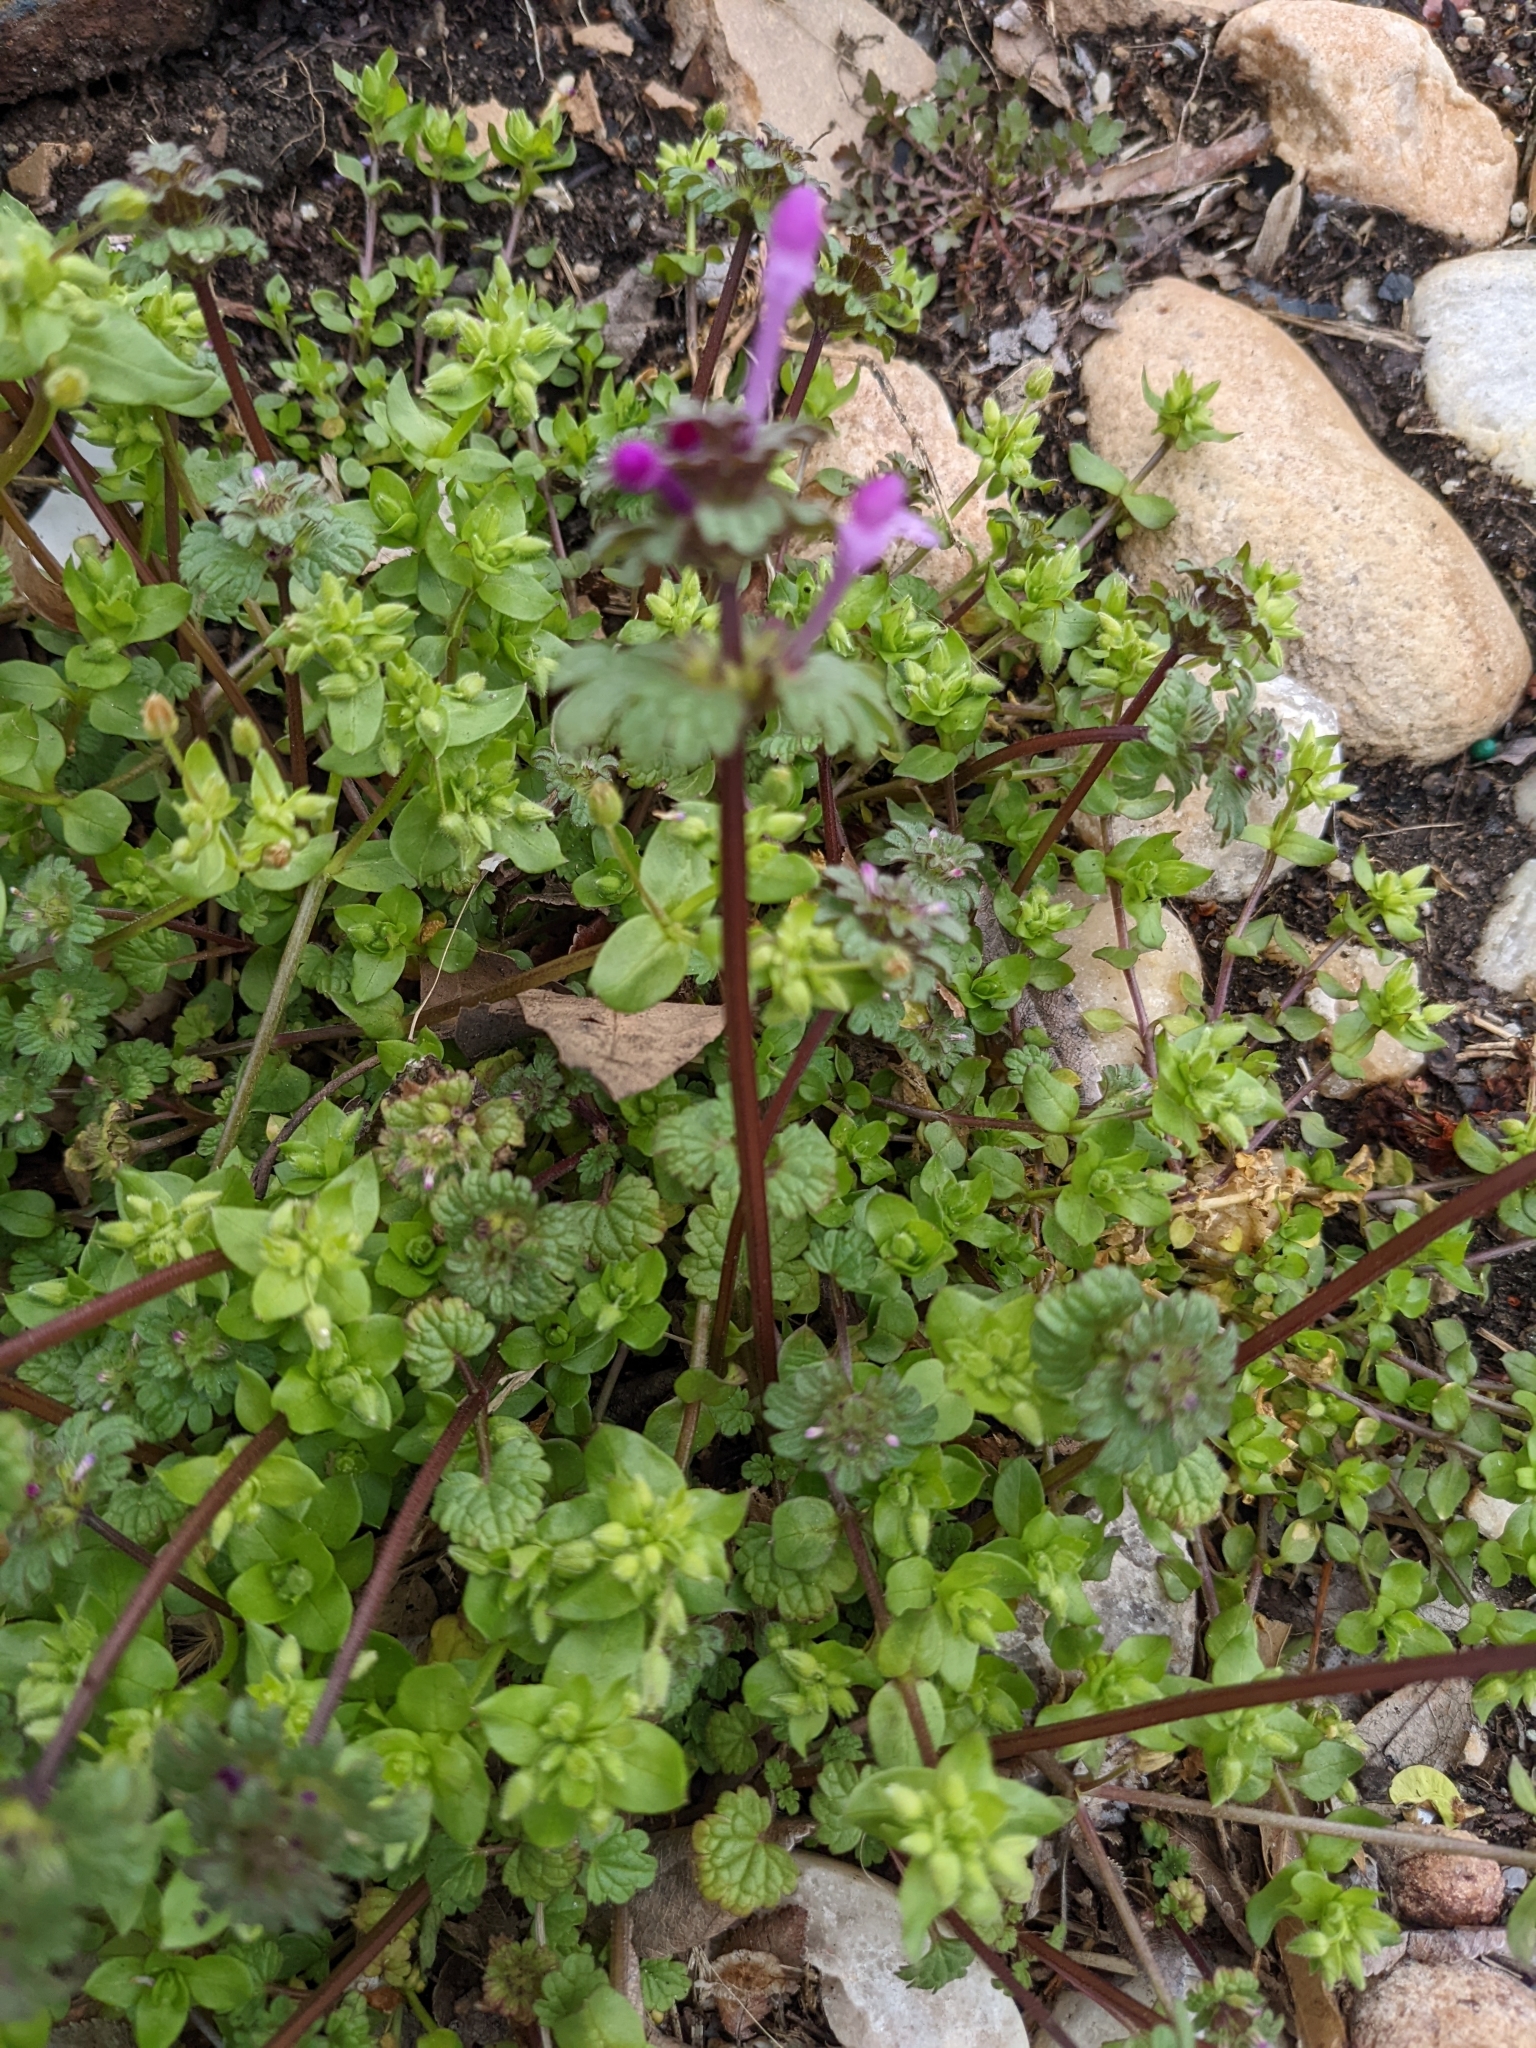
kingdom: Plantae
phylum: Tracheophyta
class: Magnoliopsida
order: Lamiales
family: Lamiaceae
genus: Lamium
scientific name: Lamium amplexicaule
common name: Henbit dead-nettle
